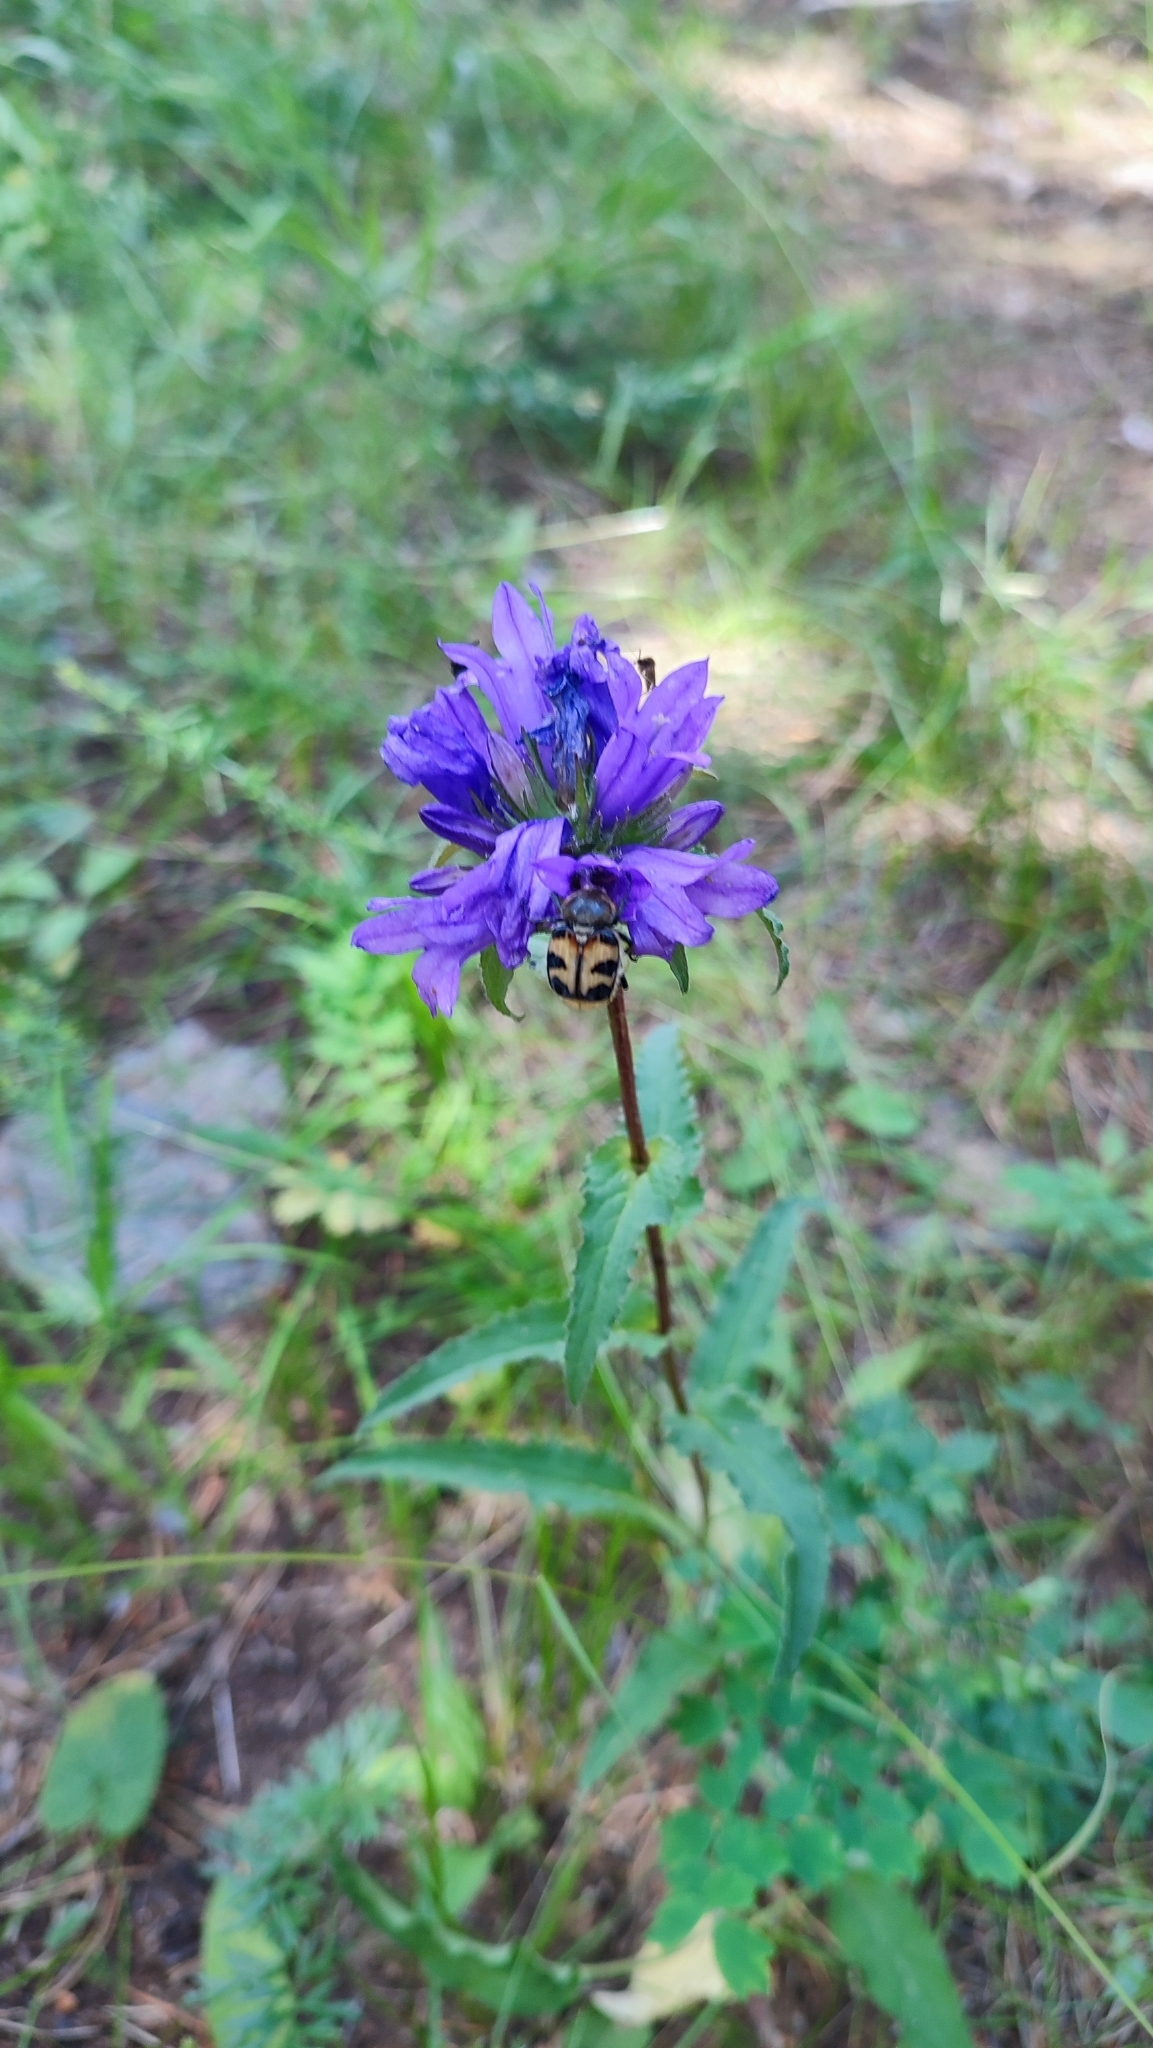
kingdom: Plantae
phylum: Tracheophyta
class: Magnoliopsida
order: Asterales
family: Campanulaceae
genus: Campanula
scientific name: Campanula glomerata
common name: Clustered bellflower
